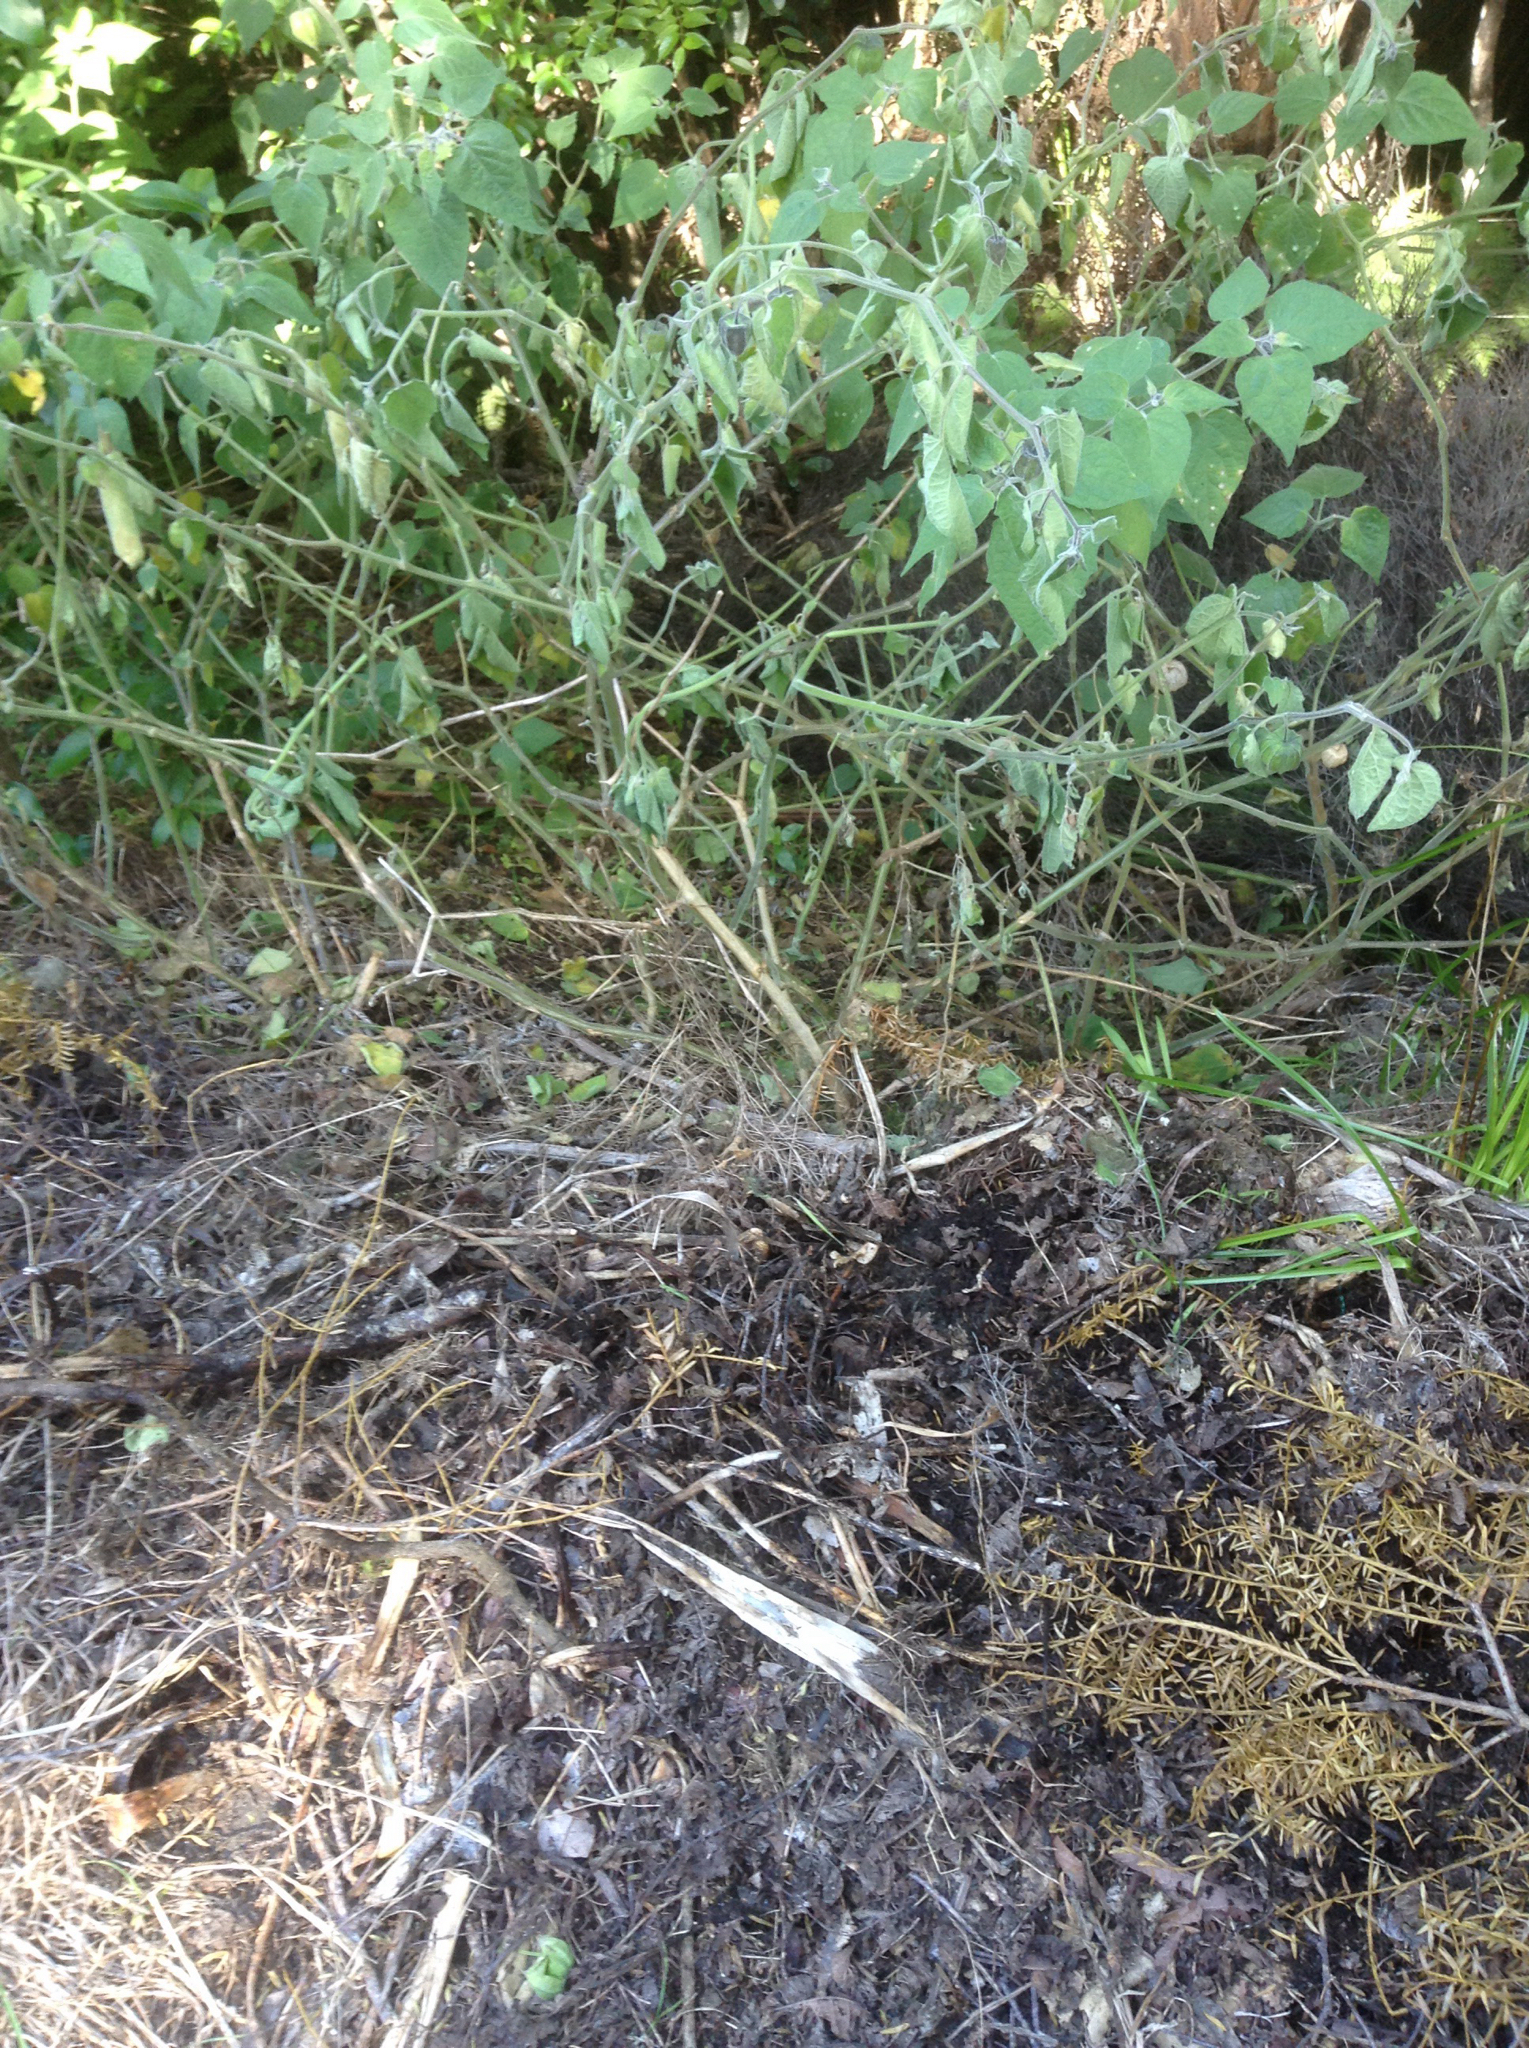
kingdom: Plantae
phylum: Tracheophyta
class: Magnoliopsida
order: Solanales
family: Solanaceae
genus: Physalis
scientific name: Physalis peruviana
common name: Cape-gooseberry
